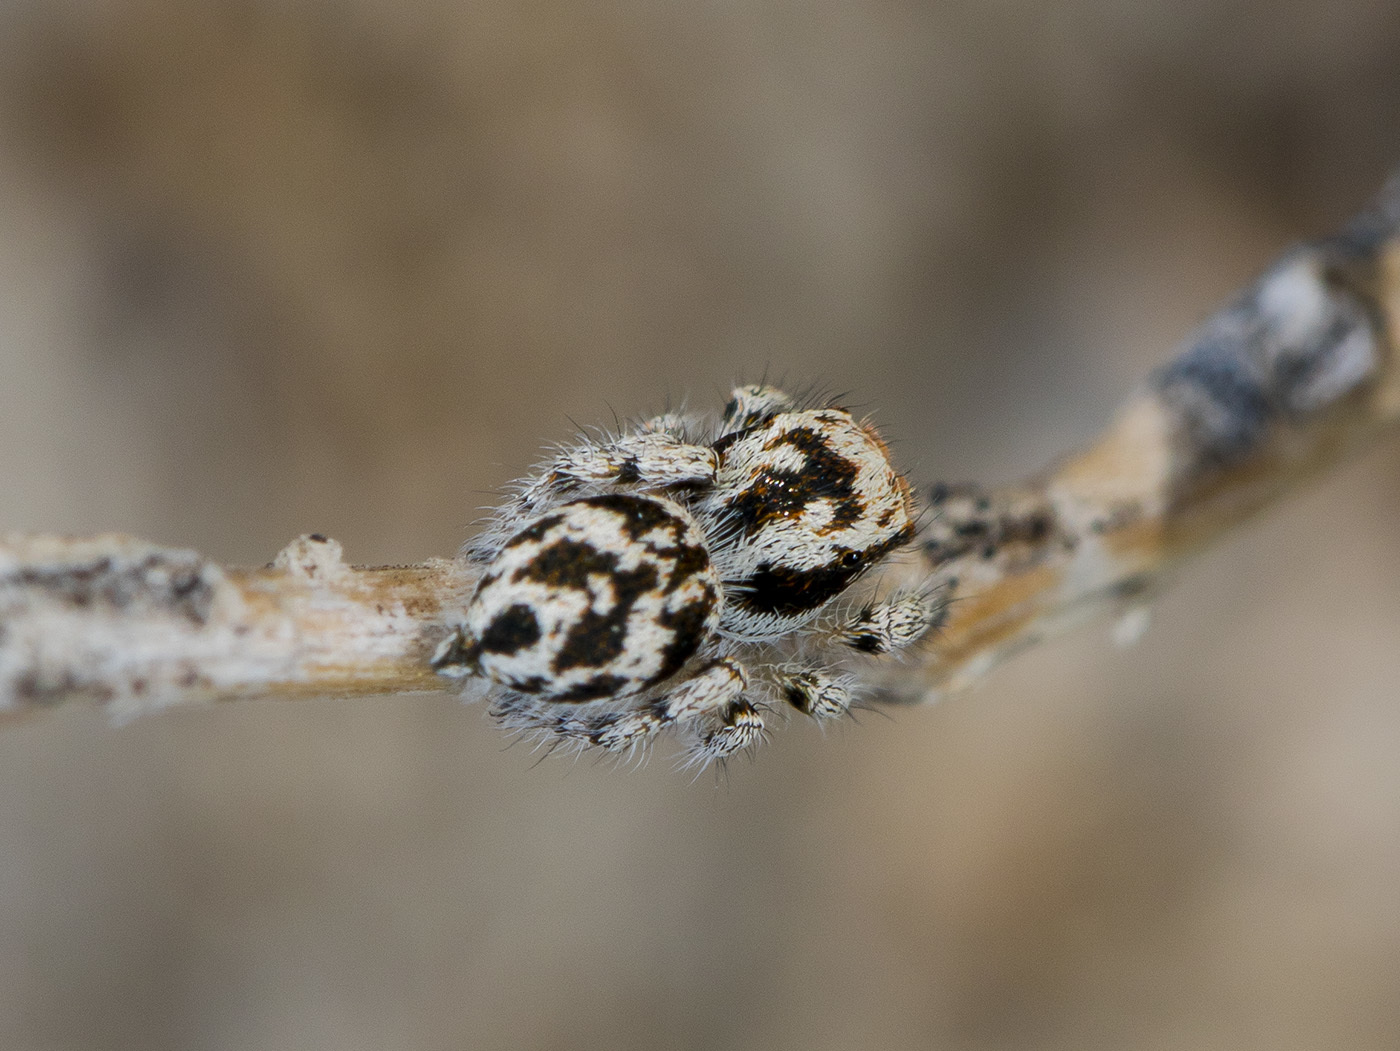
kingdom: Animalia
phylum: Arthropoda
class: Arachnida
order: Araneae
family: Salticidae
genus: Pseudomogrus
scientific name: Pseudomogrus dalaensis
